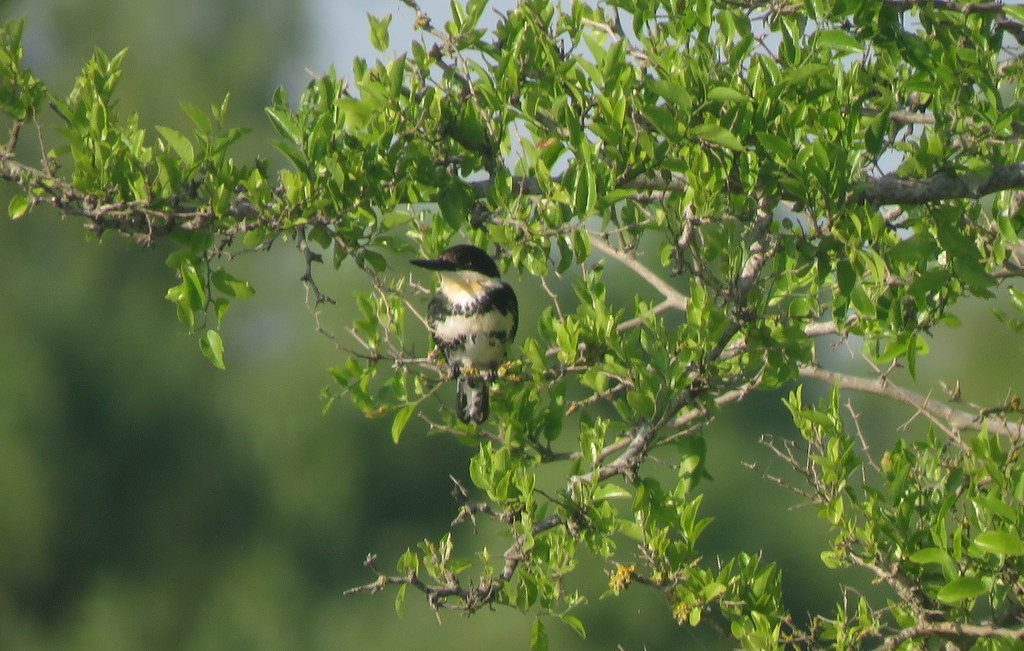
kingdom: Animalia
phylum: Chordata
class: Aves
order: Coraciiformes
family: Alcedinidae
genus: Chloroceryle
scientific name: Chloroceryle americana
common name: Green kingfisher
